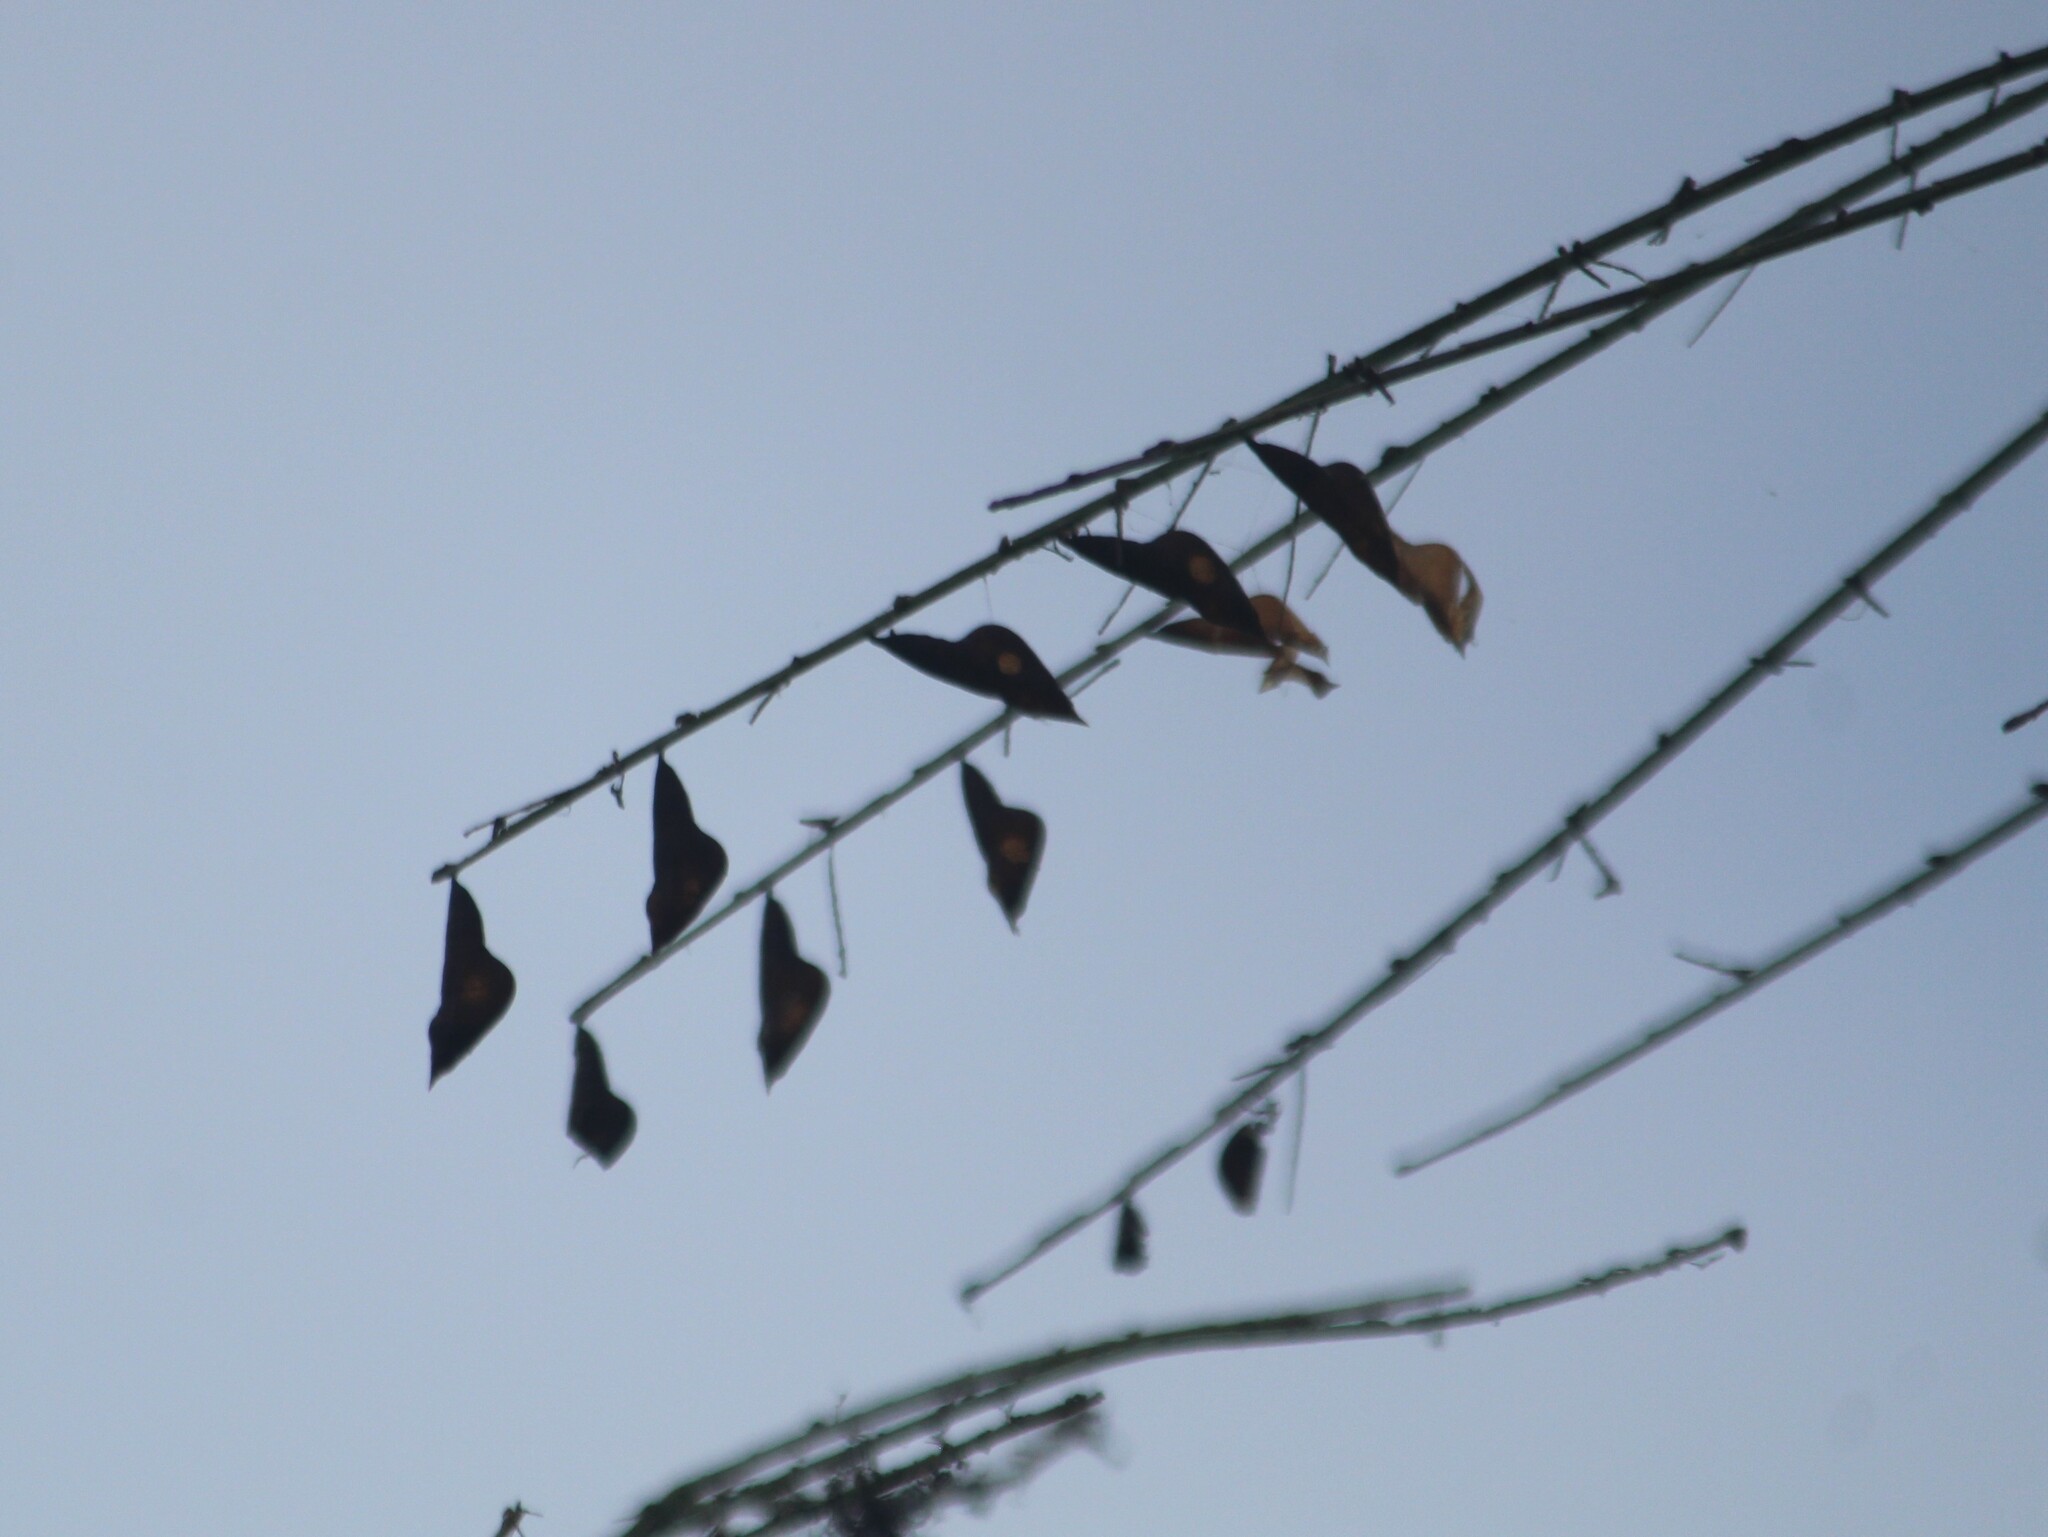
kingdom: Animalia
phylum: Arthropoda
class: Insecta
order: Lepidoptera
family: Pieridae
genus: Eurema
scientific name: Eurema blanda
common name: Three-spot grass yellow
